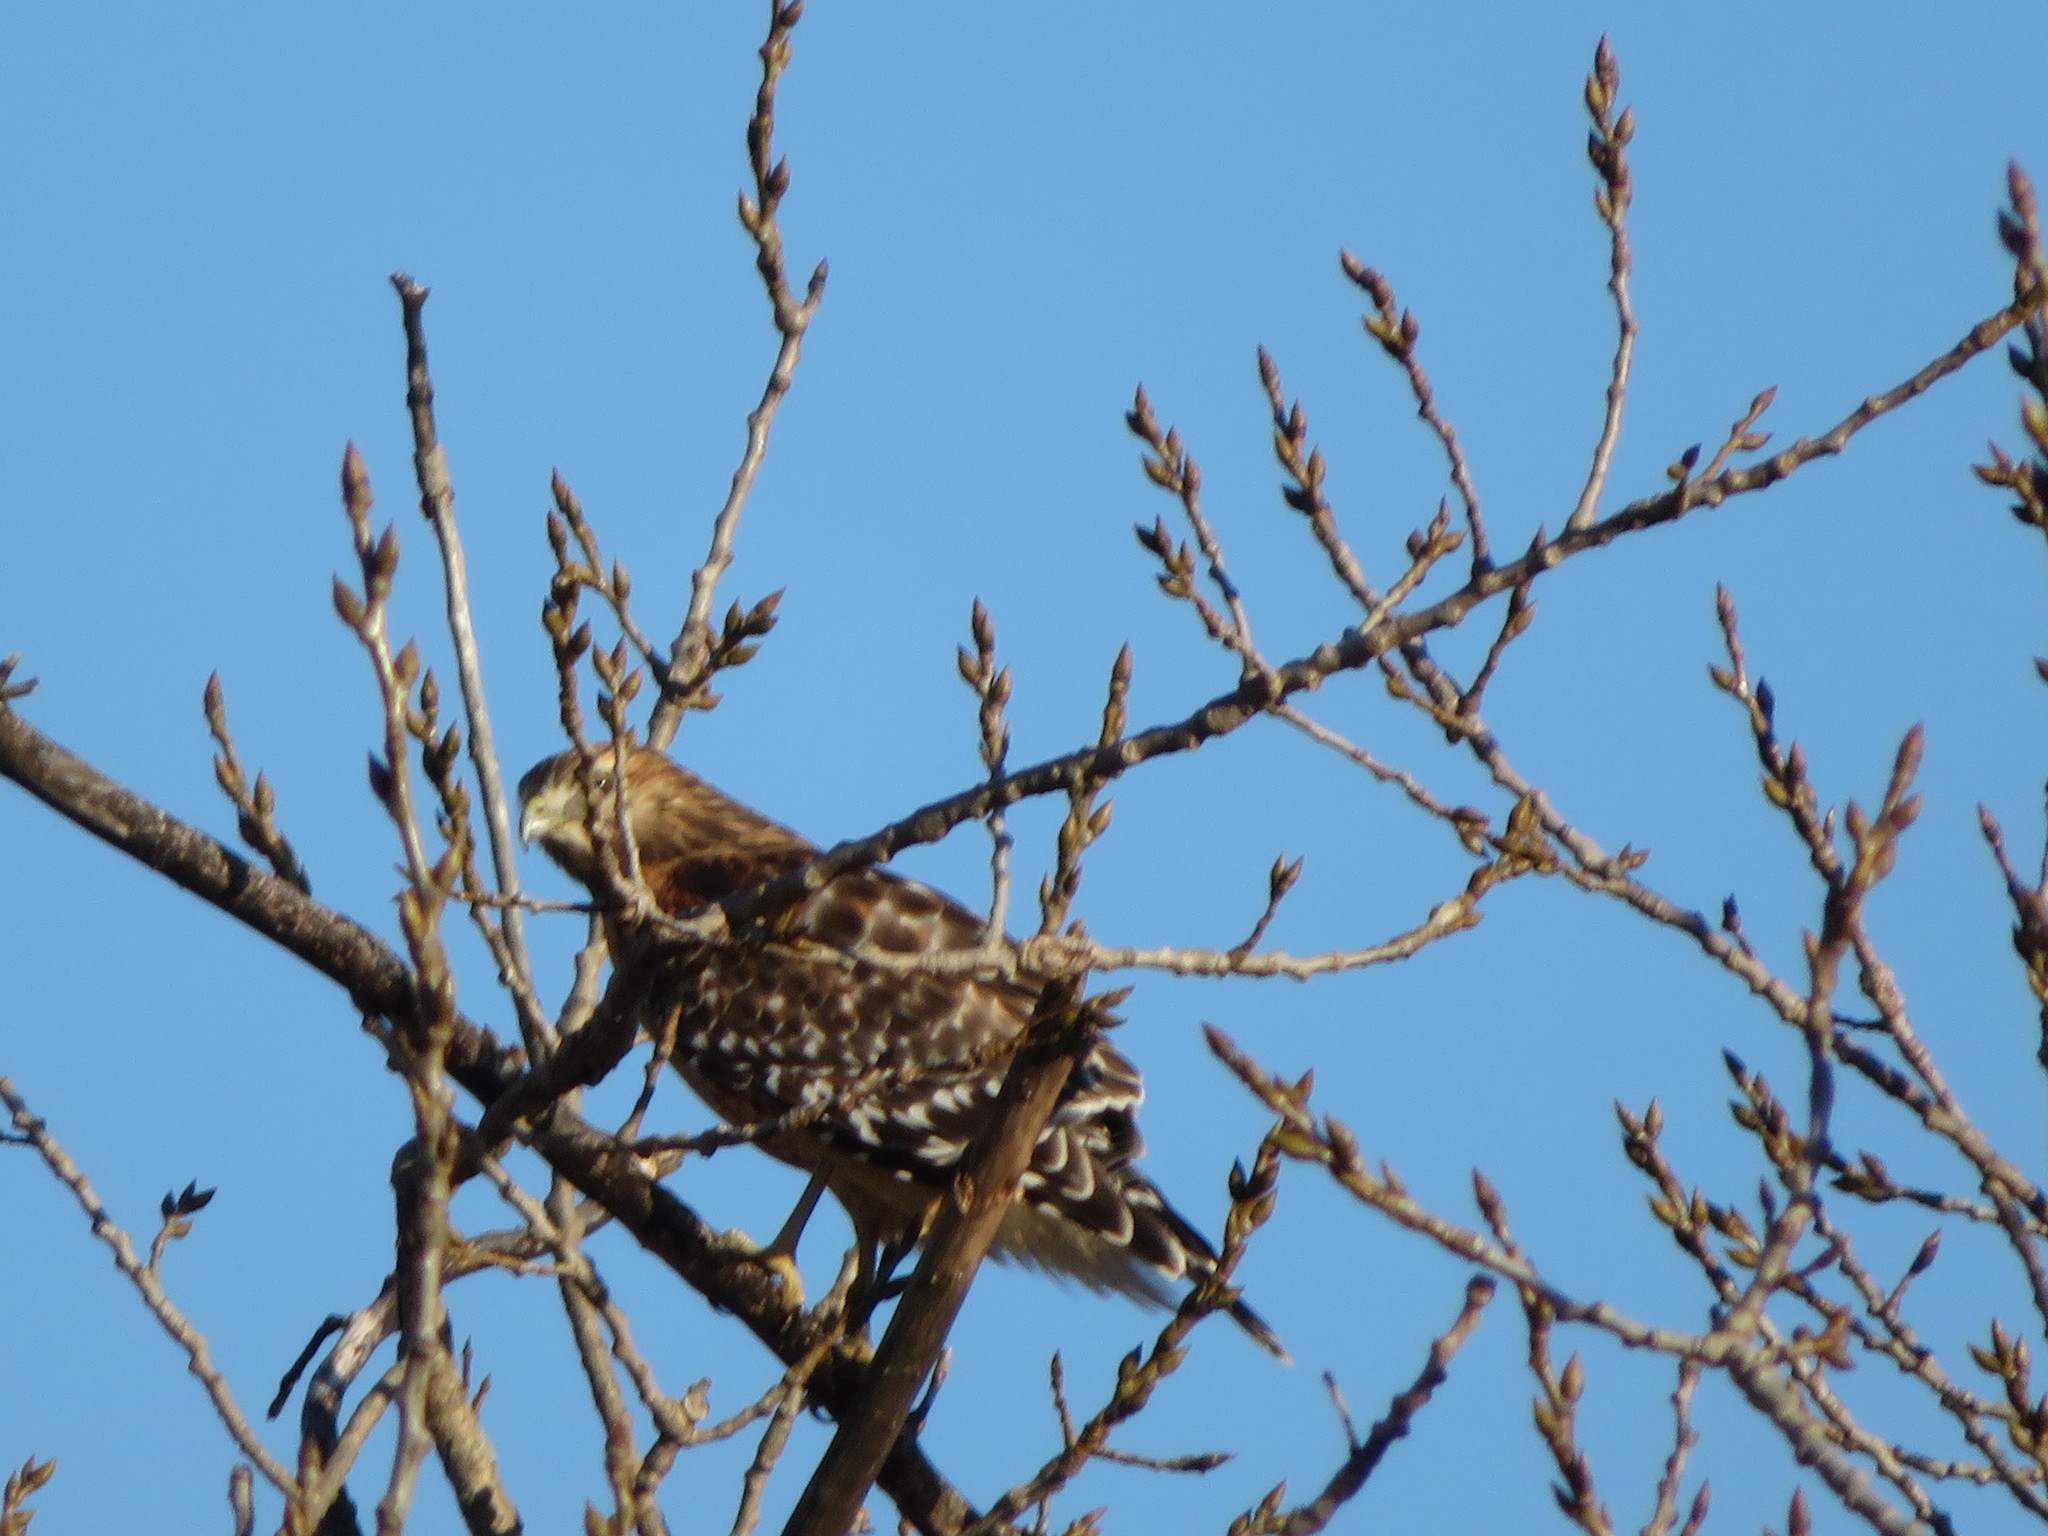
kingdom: Animalia
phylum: Chordata
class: Aves
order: Accipitriformes
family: Accipitridae
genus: Buteo
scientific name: Buteo lineatus
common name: Red-shouldered hawk
